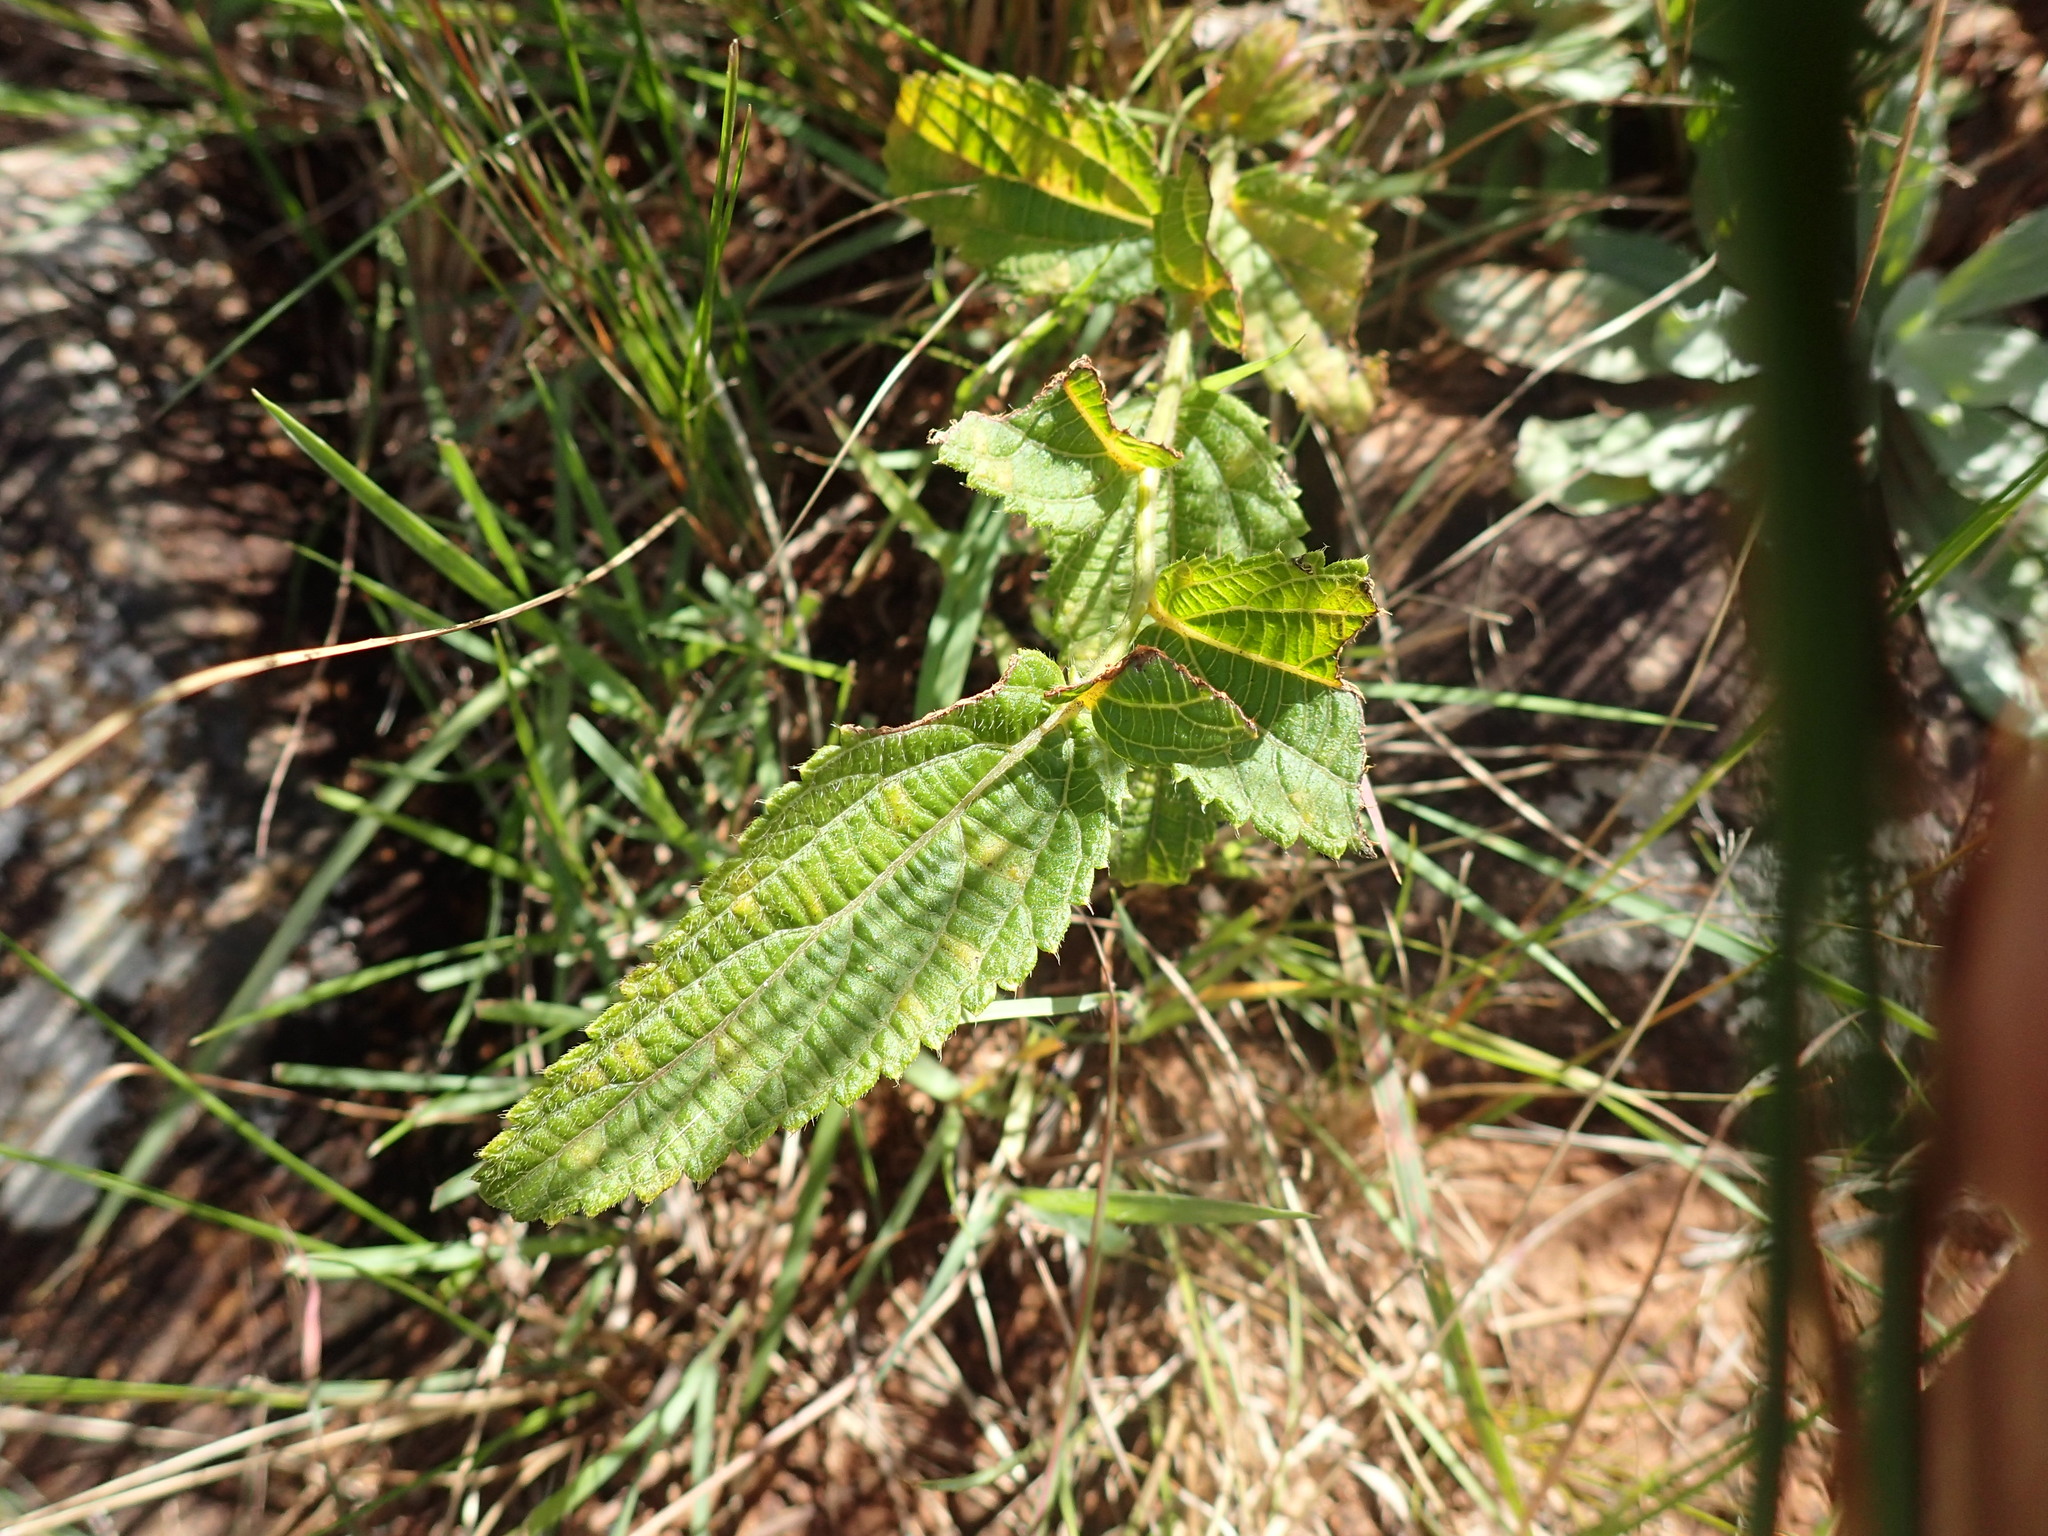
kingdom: Plantae
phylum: Tracheophyta
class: Magnoliopsida
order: Malpighiales
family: Euphorbiaceae
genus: Acalypha
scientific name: Acalypha petiolaris
